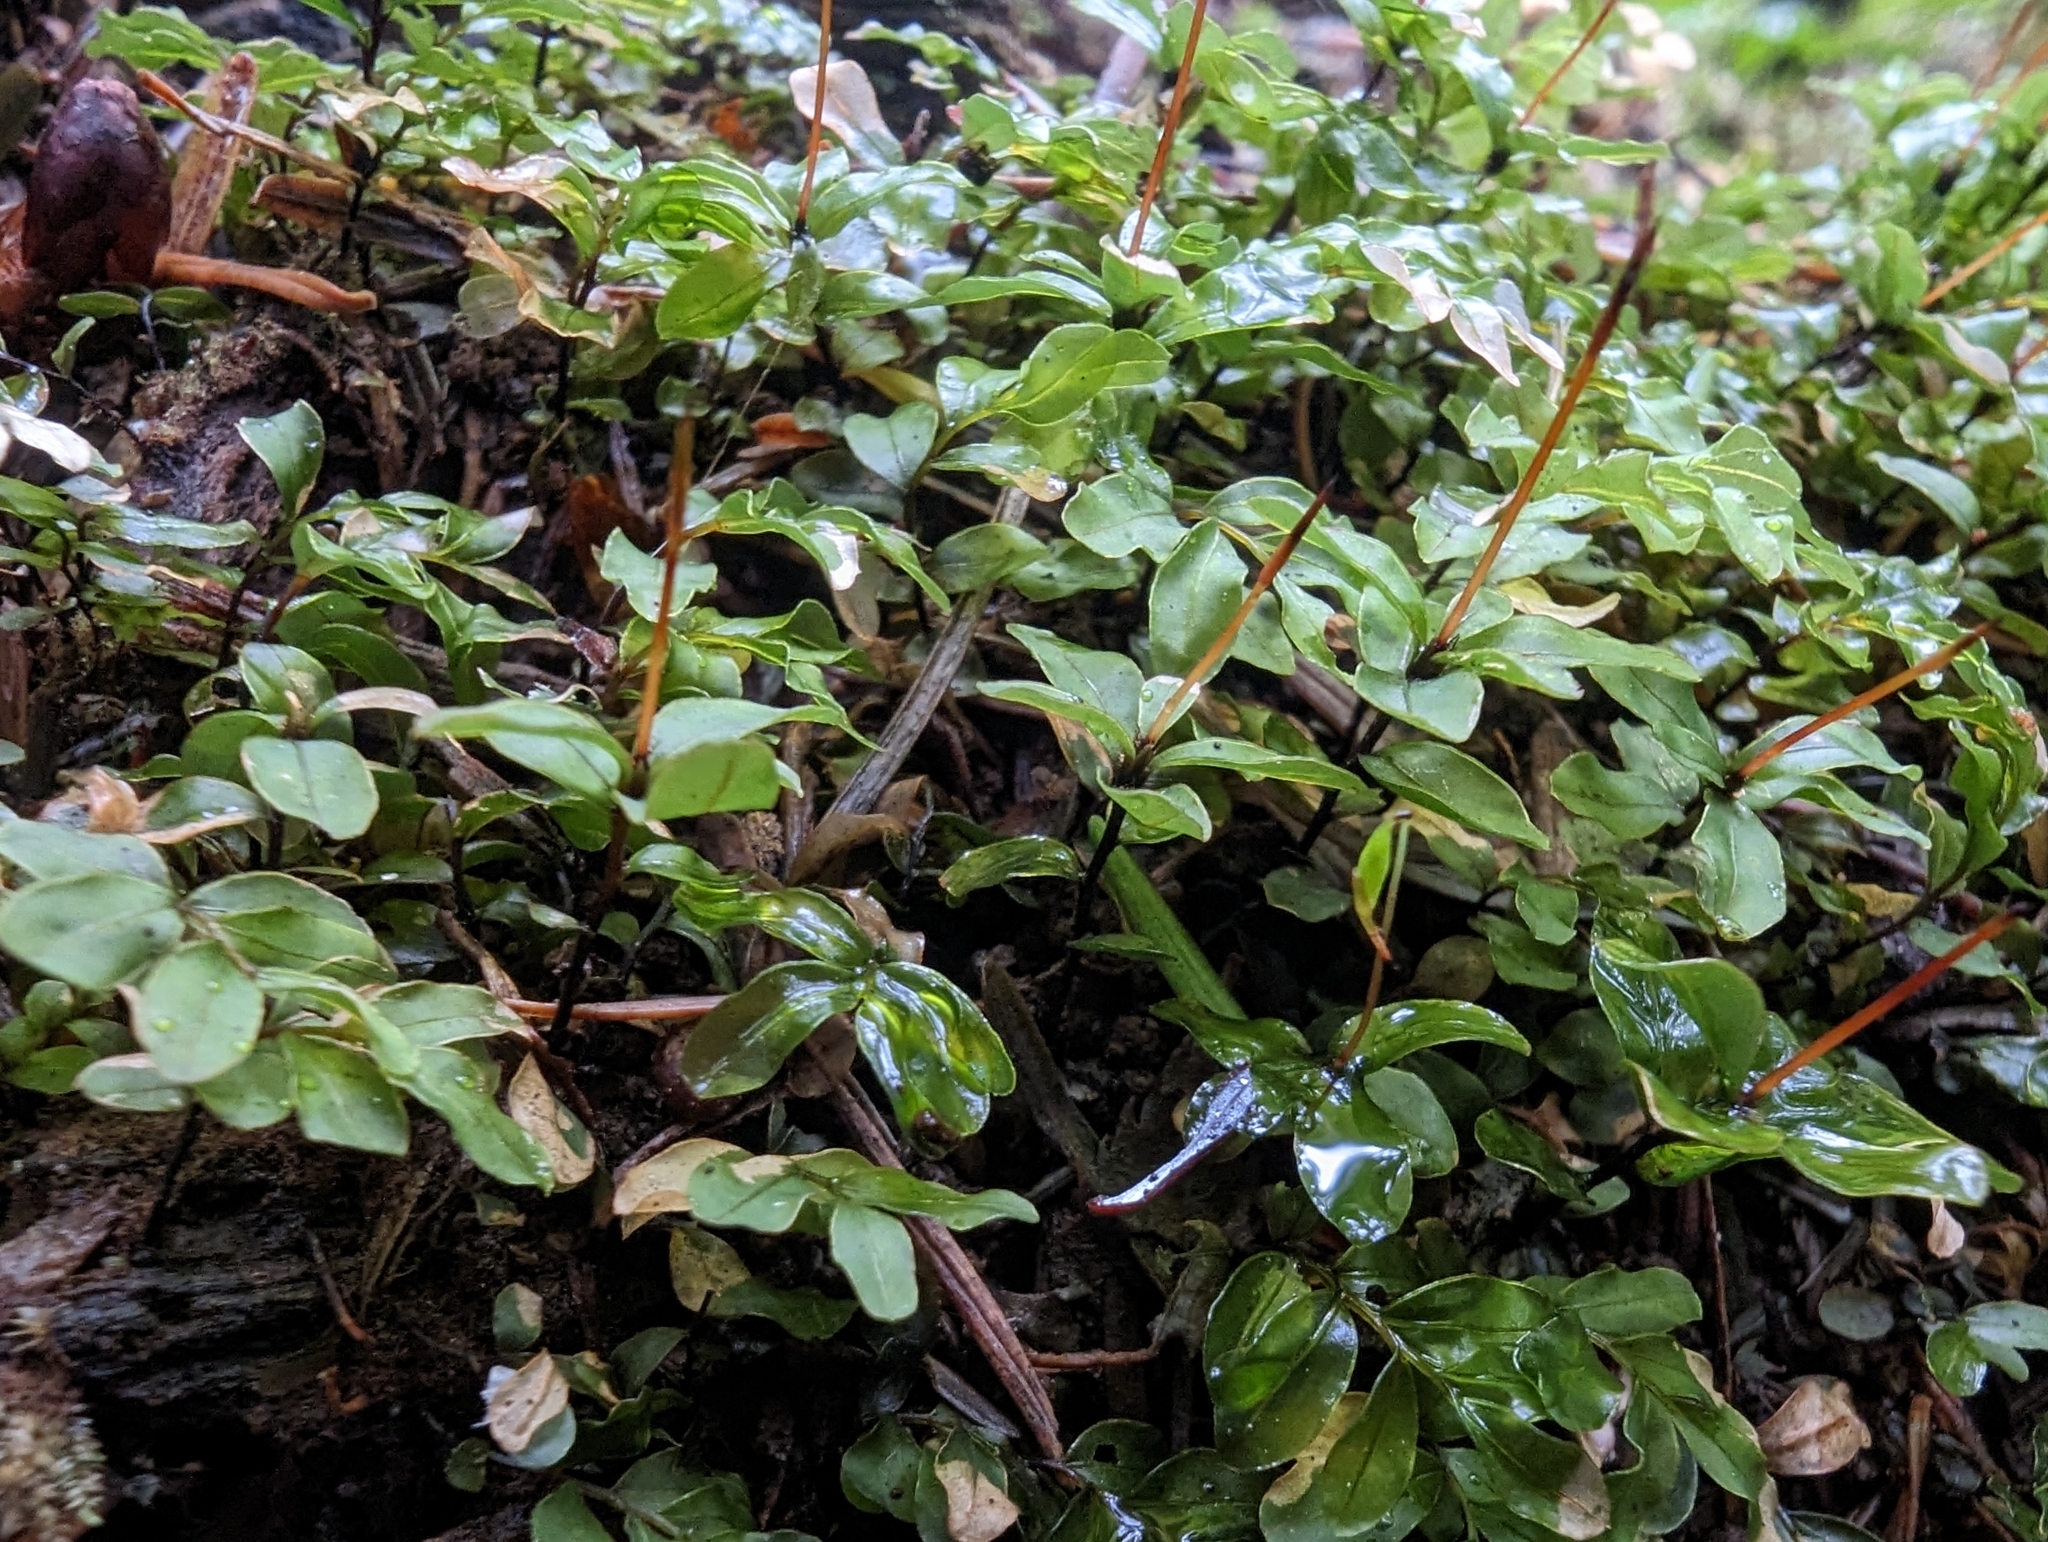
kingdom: Plantae
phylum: Bryophyta
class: Bryopsida
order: Bryales
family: Mniaceae
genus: Rhizomnium
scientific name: Rhizomnium glabrescens
